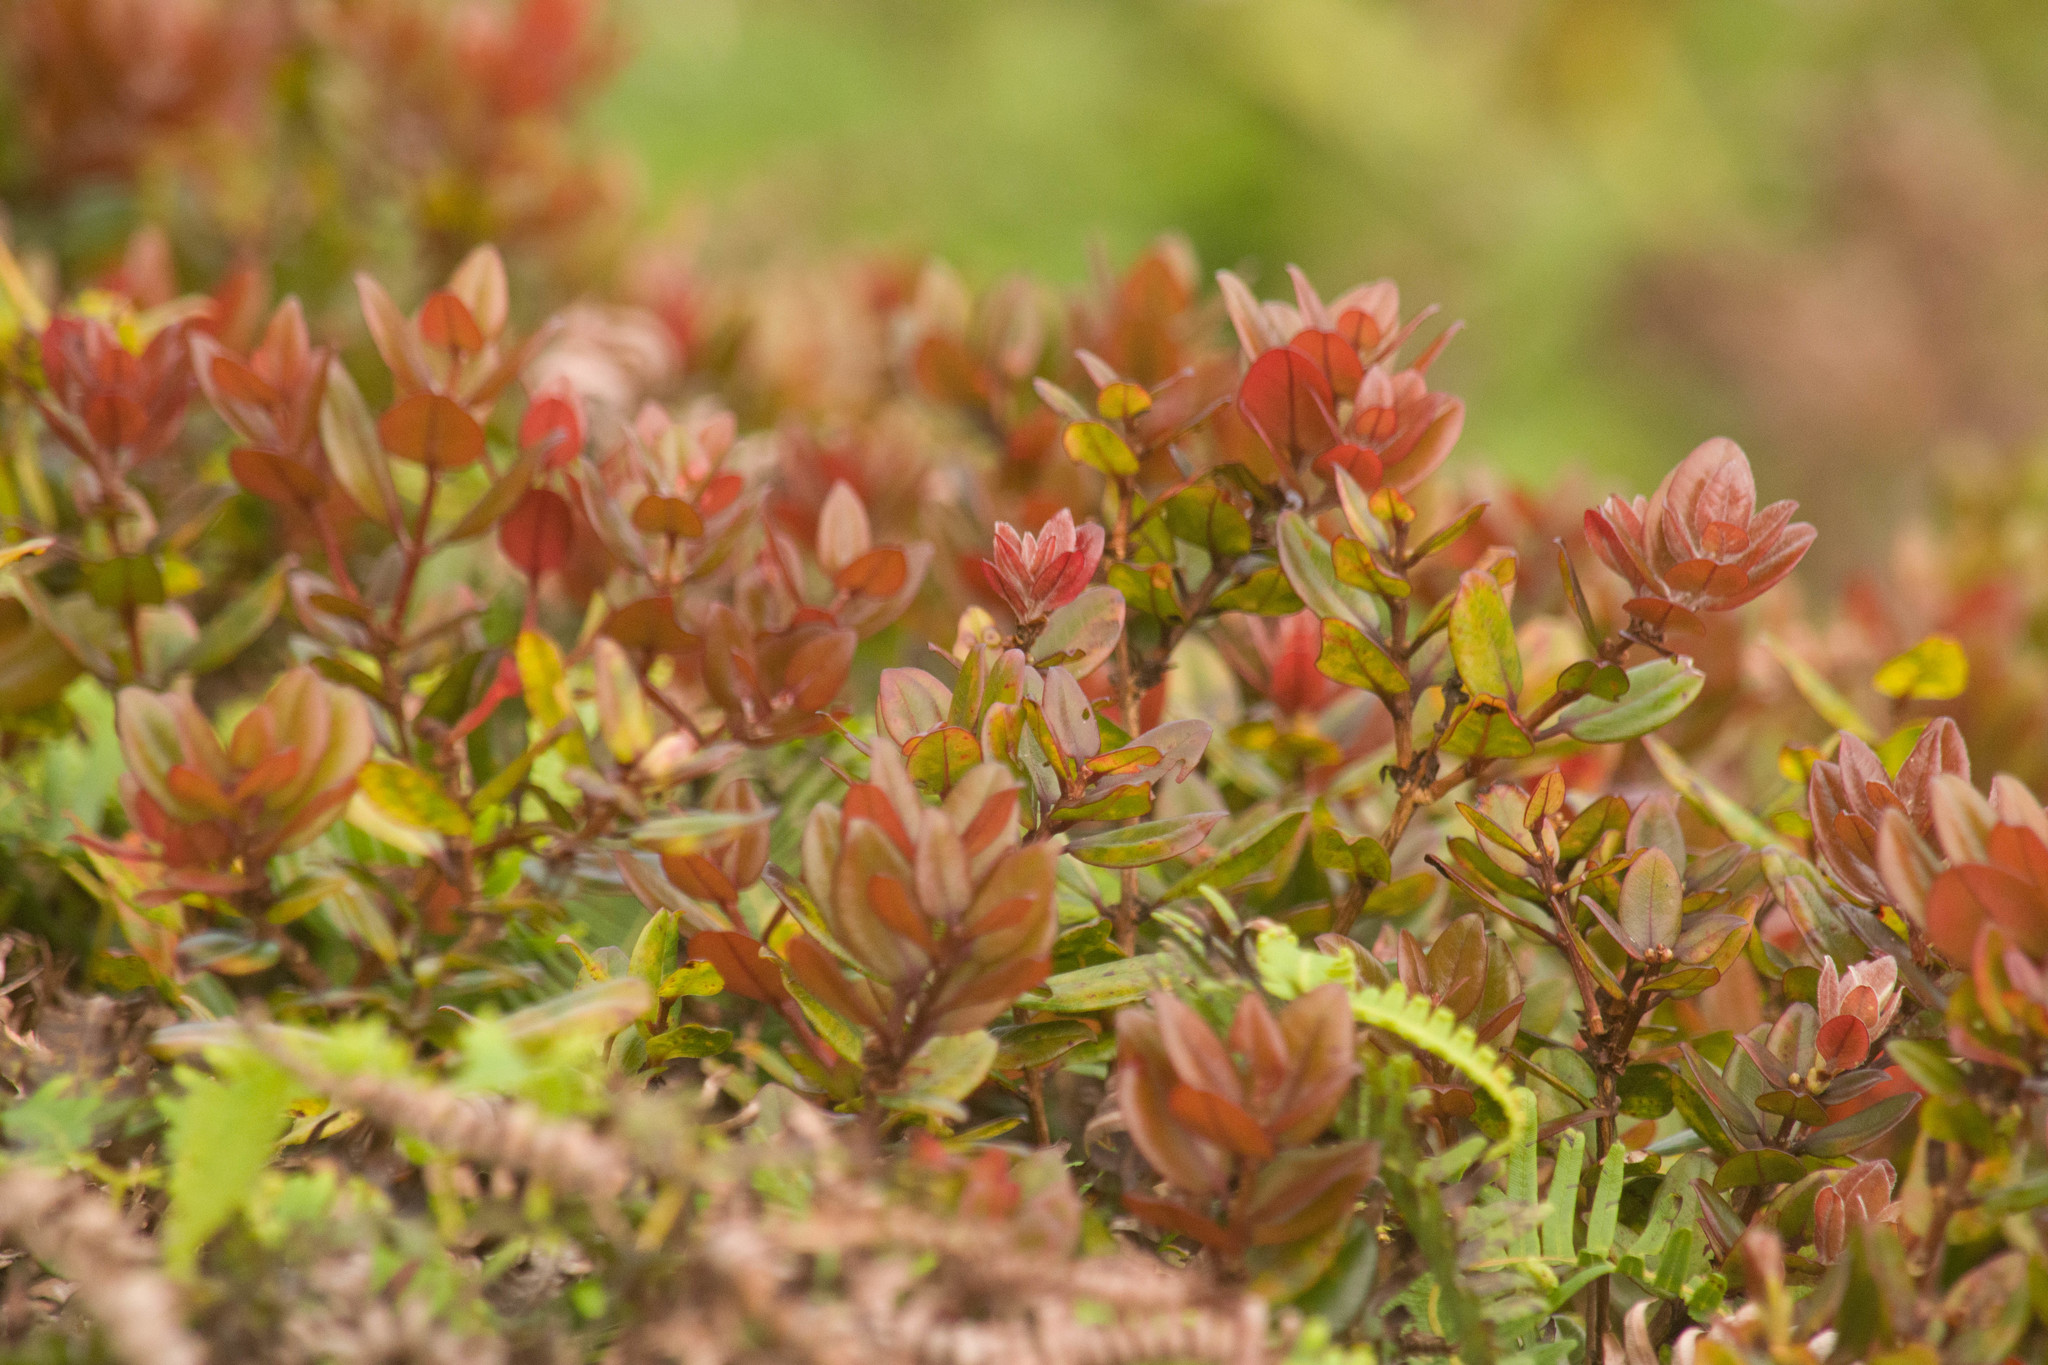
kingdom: Plantae
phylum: Tracheophyta
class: Magnoliopsida
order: Myrtales
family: Myrtaceae
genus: Metrosideros
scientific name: Metrosideros polymorpha
